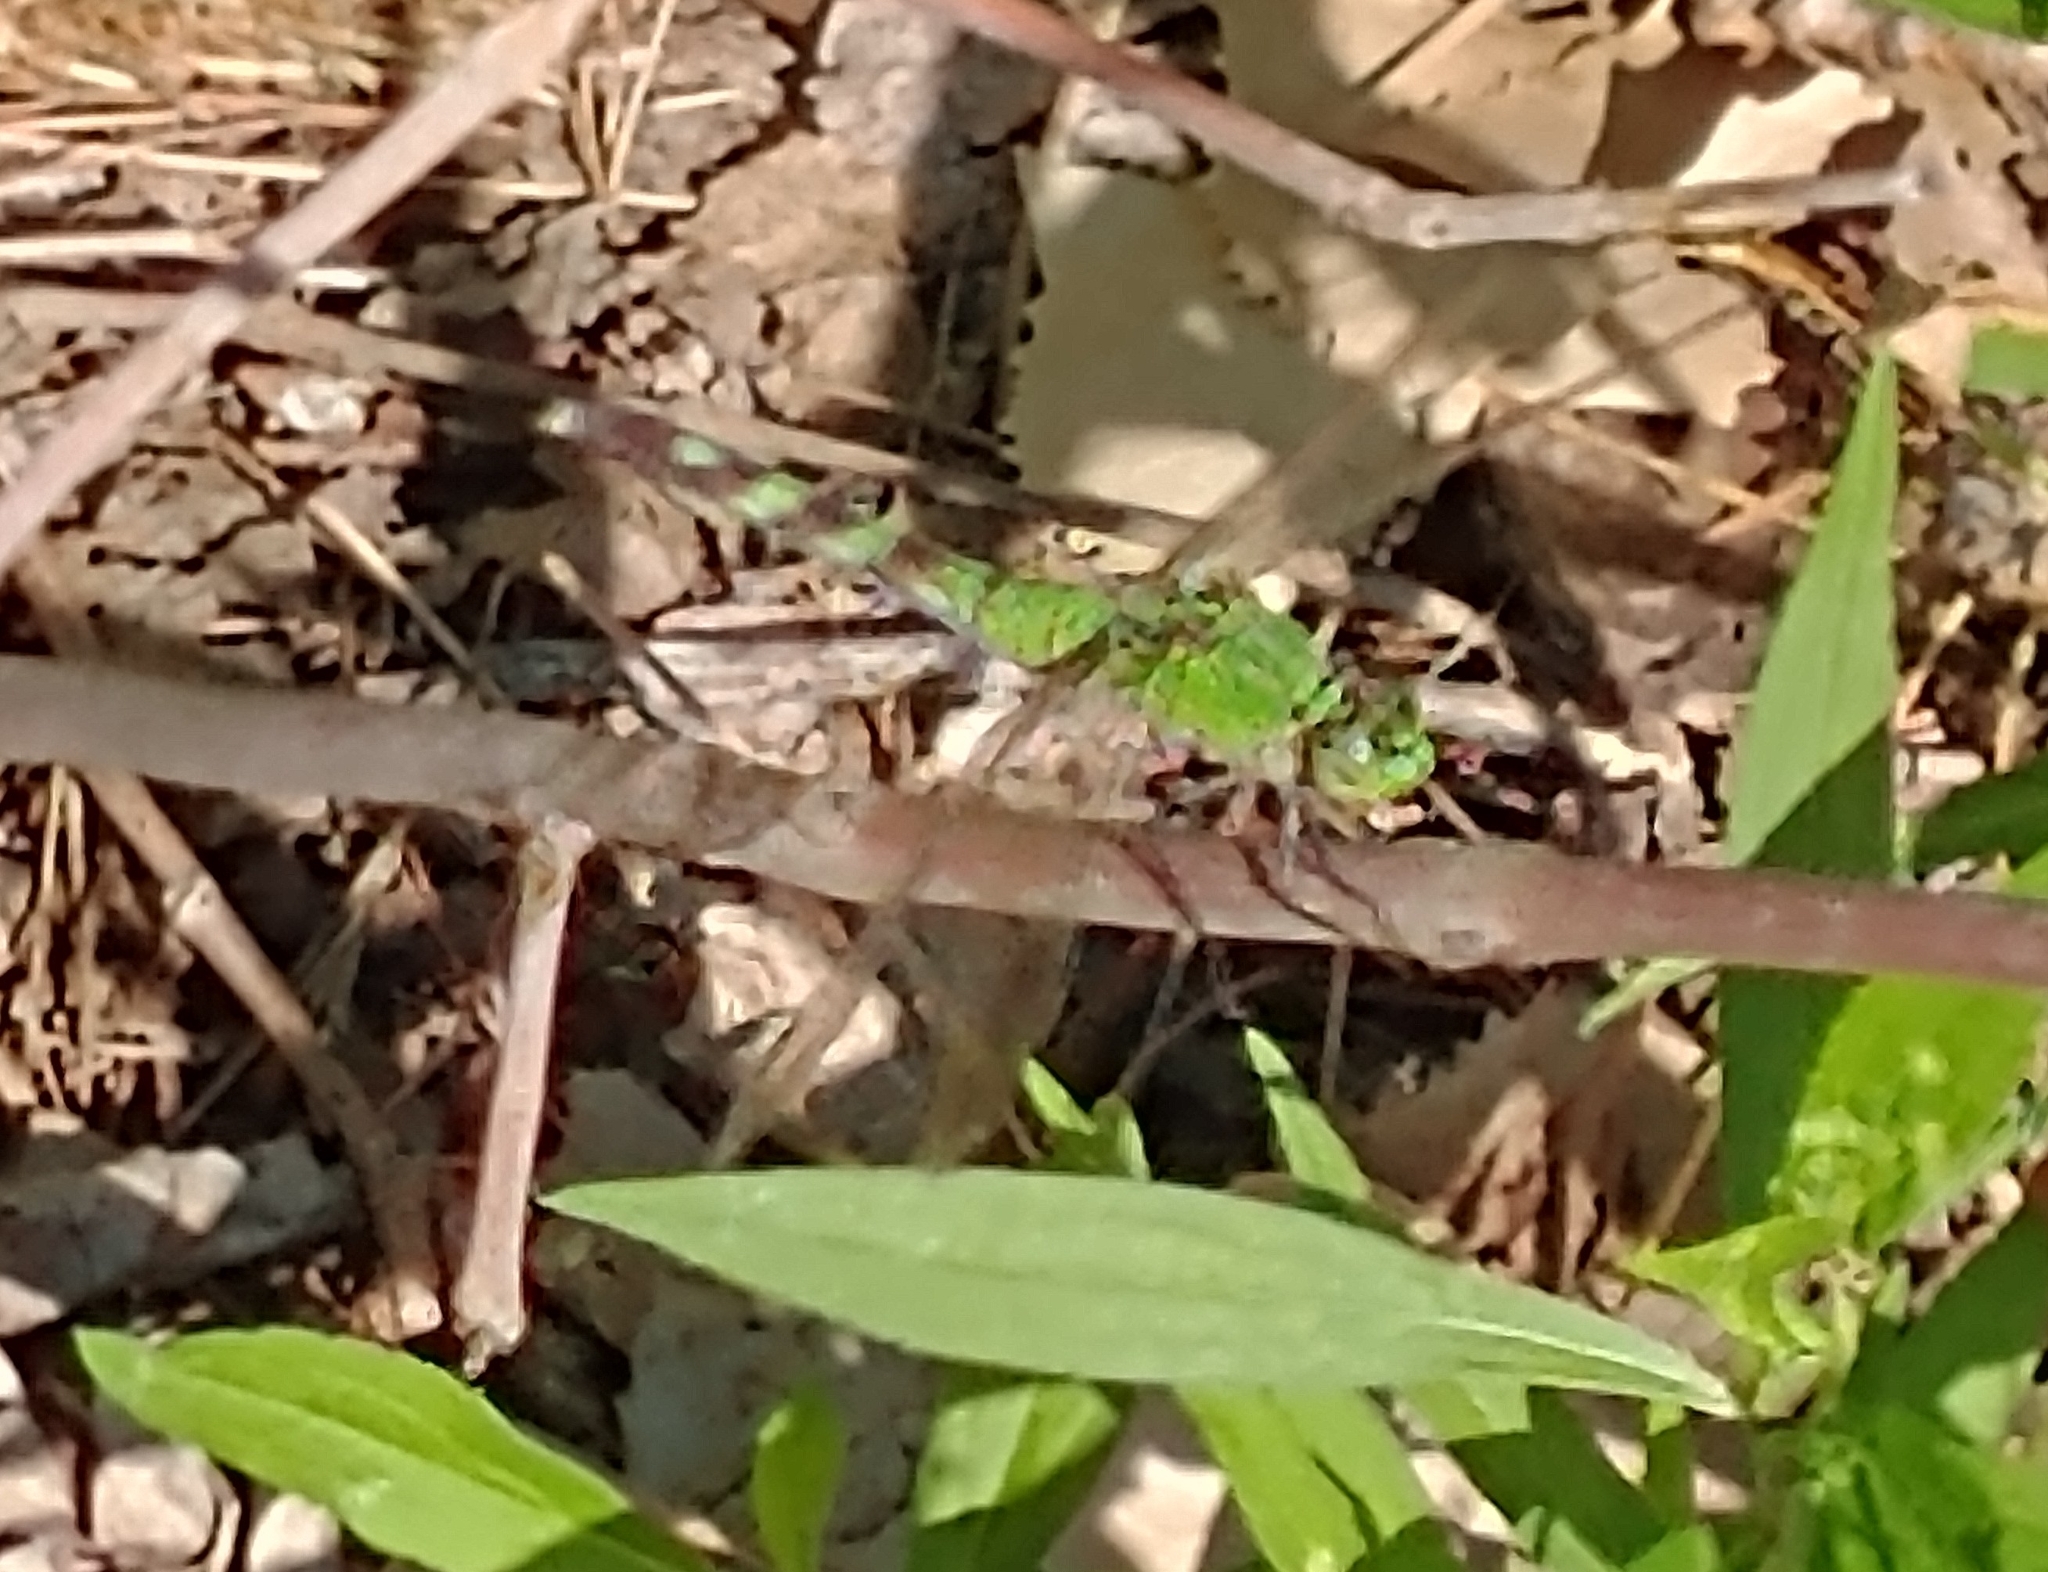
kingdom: Animalia
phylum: Arthropoda
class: Insecta
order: Odonata
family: Libellulidae
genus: Erythemis
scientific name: Erythemis simplicicollis
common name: Eastern pondhawk
